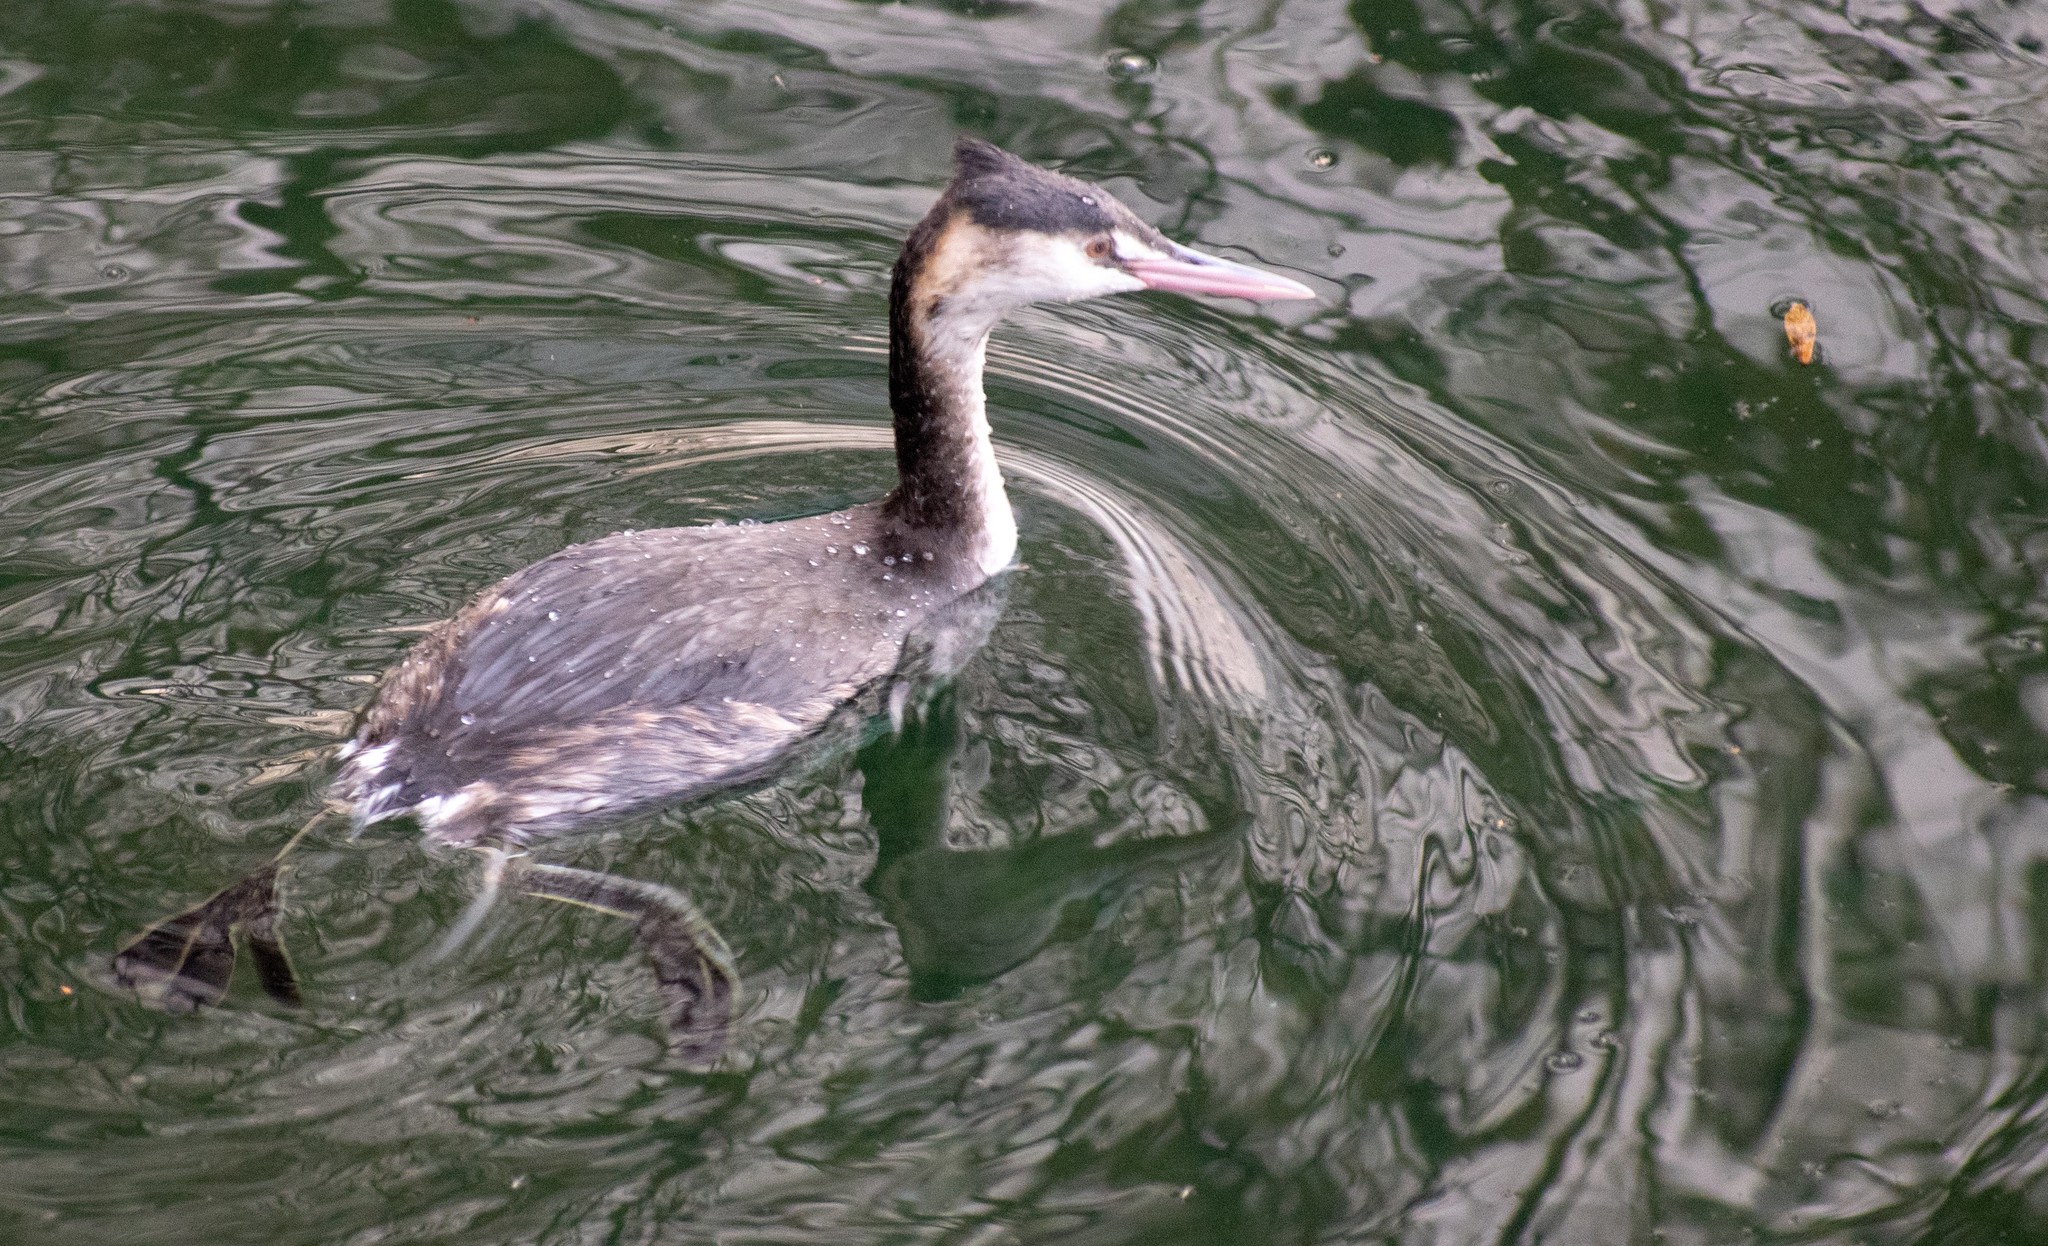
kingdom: Animalia
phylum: Chordata
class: Aves
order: Podicipediformes
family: Podicipedidae
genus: Podiceps
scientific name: Podiceps cristatus
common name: Great crested grebe
